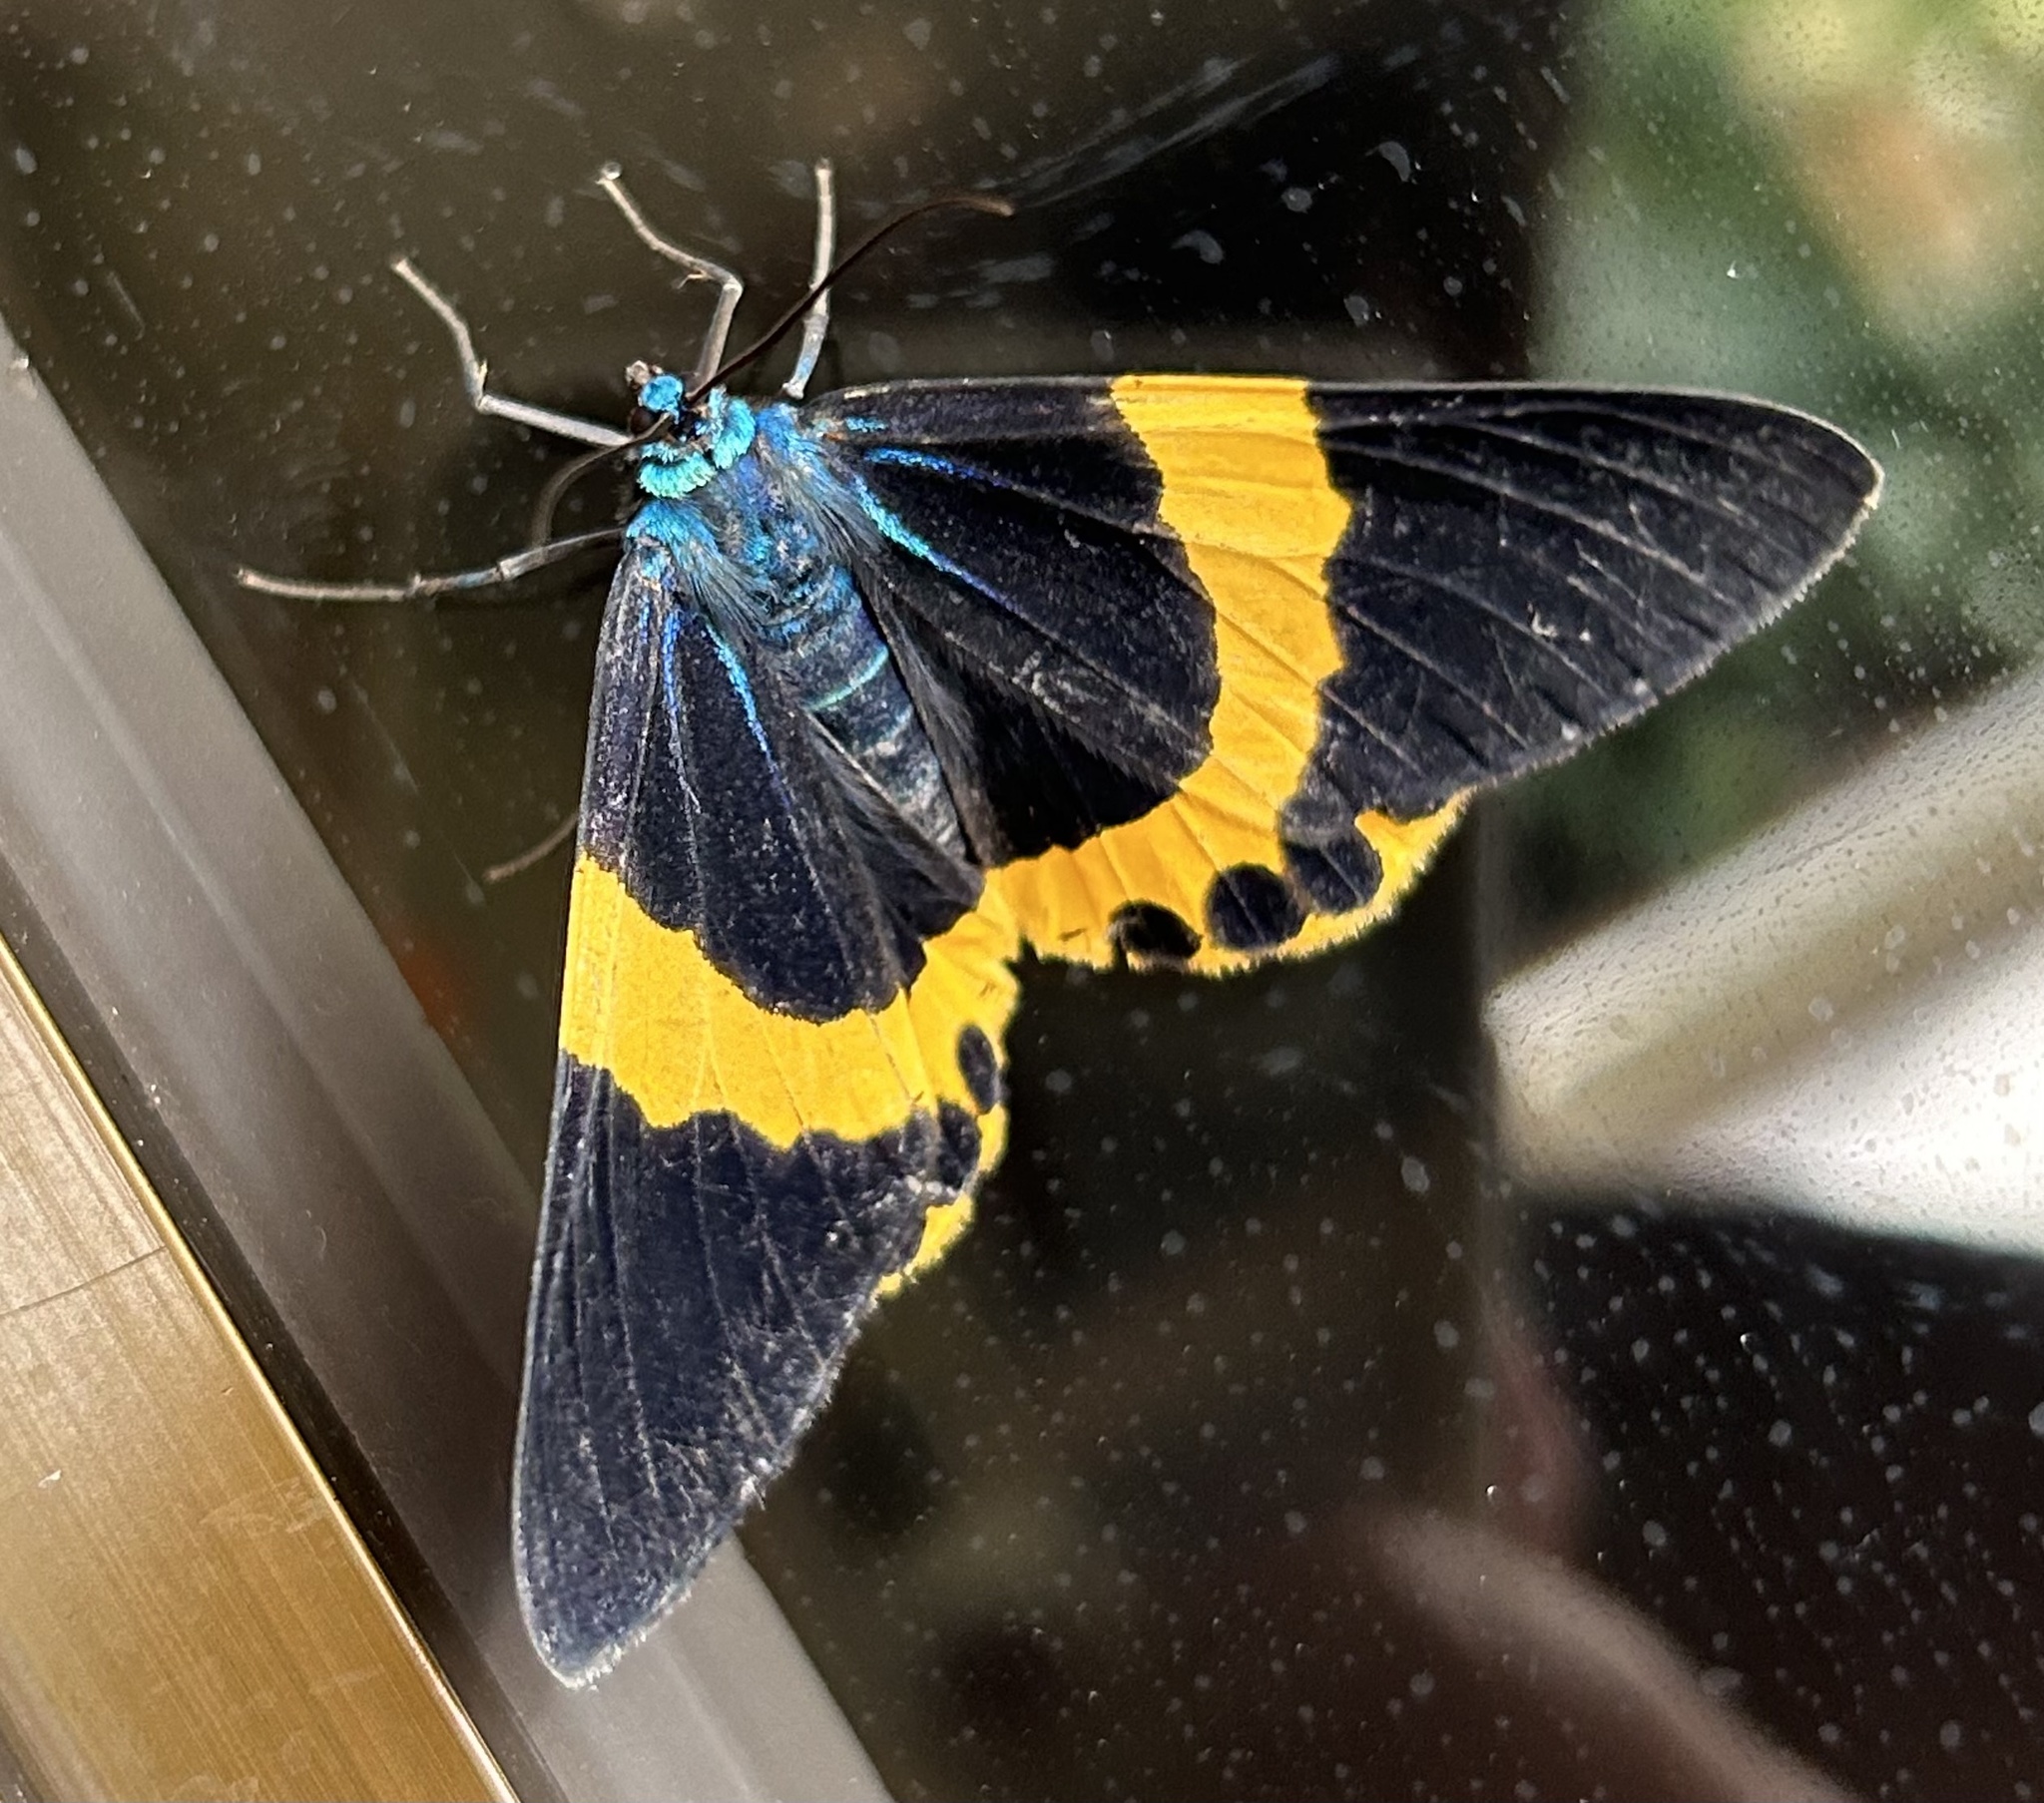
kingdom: Animalia
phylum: Arthropoda
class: Insecta
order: Lepidoptera
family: Geometridae
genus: Milionia
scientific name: Milionia basalis
